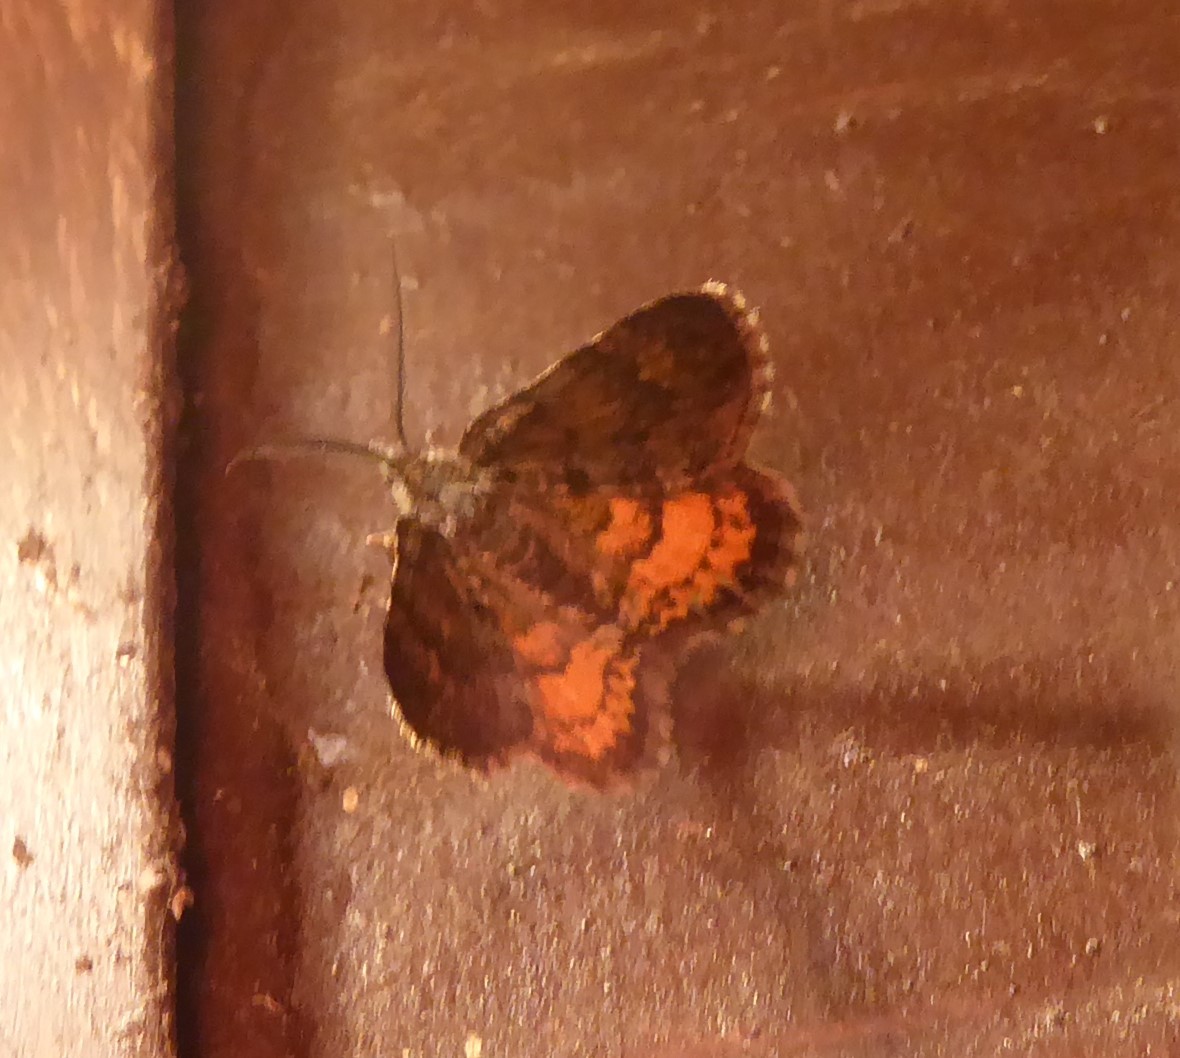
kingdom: Animalia
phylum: Arthropoda
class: Insecta
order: Lepidoptera
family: Geometridae
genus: Paranotoreas
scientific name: Paranotoreas brephosata
